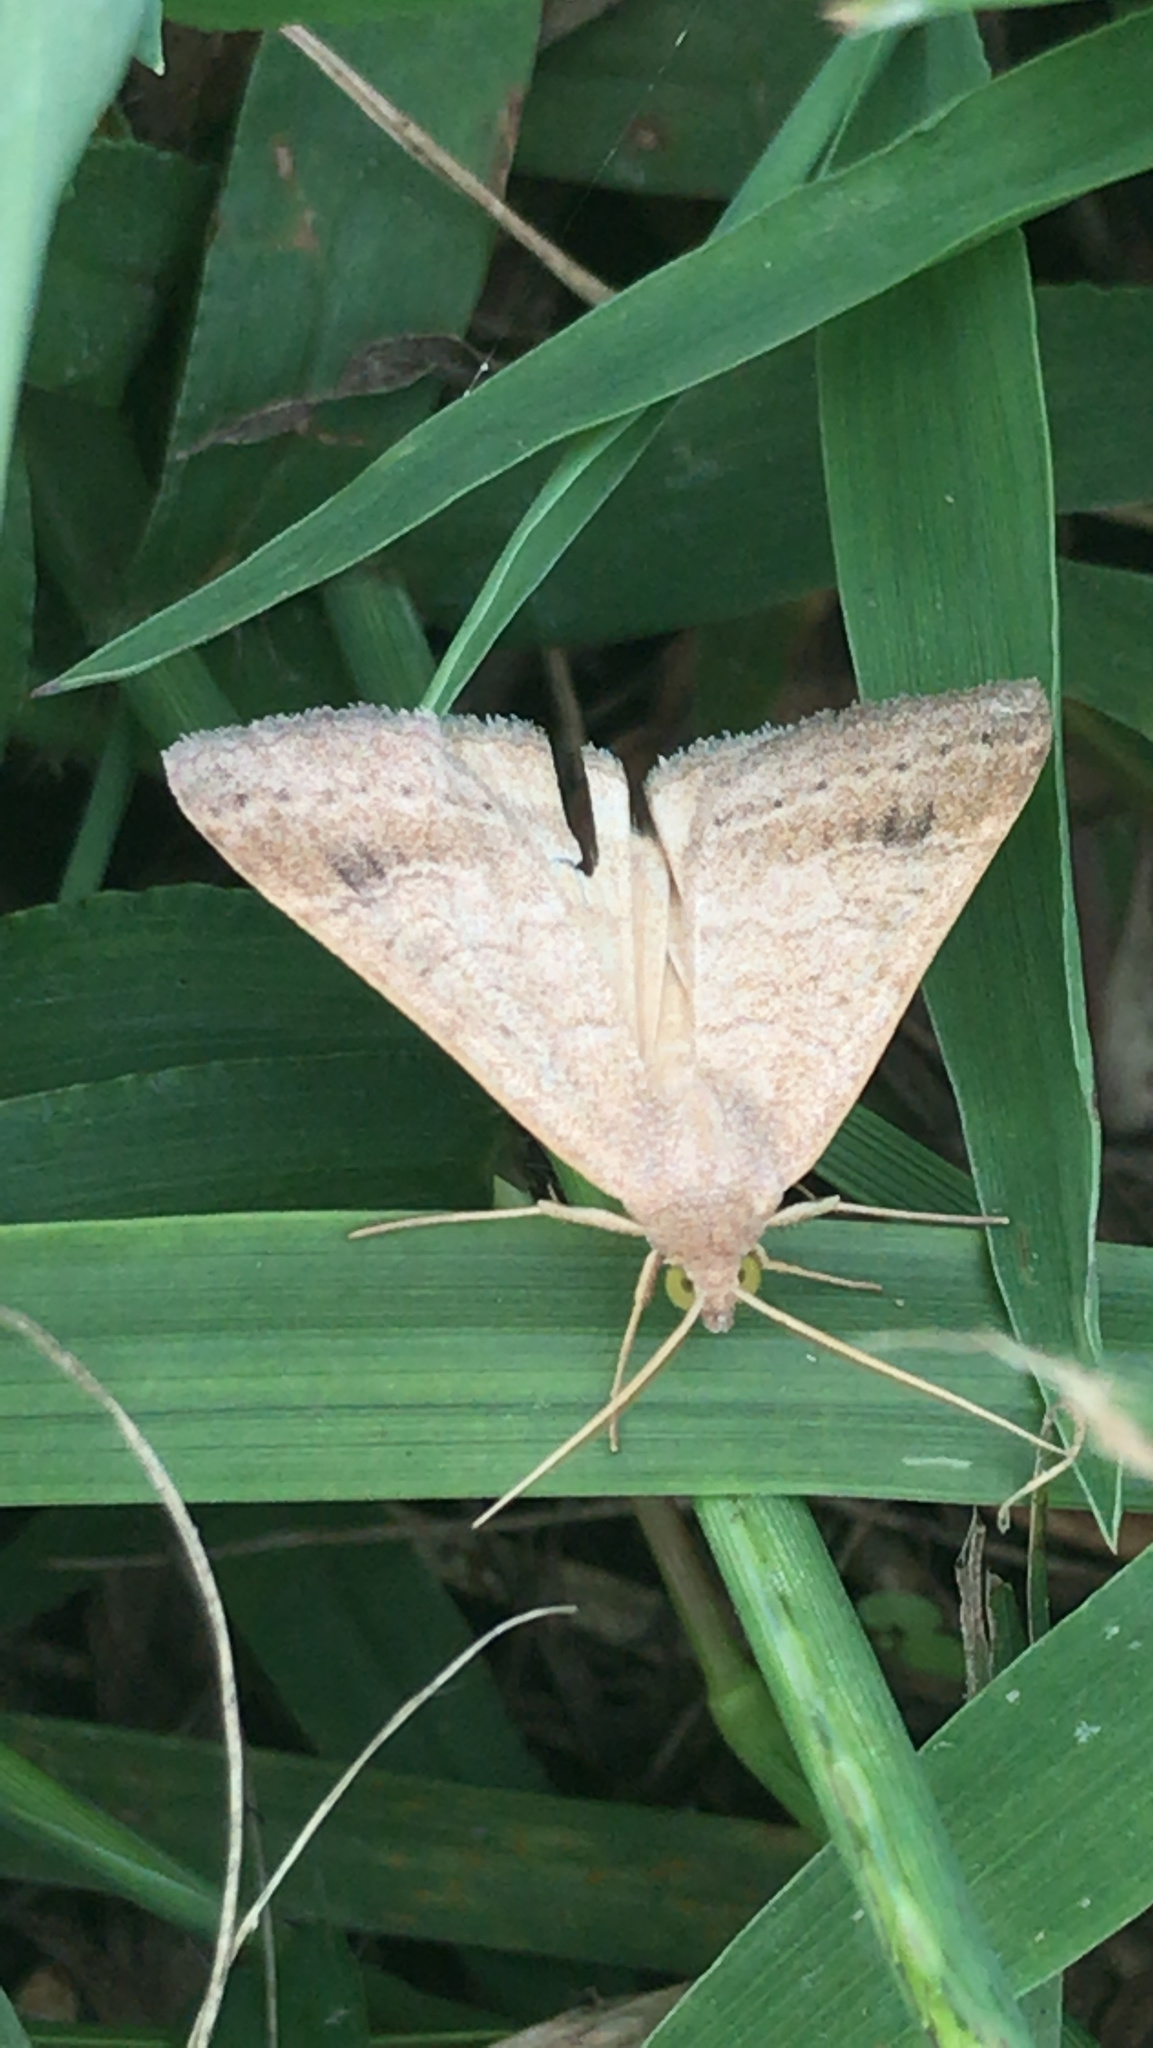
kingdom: Animalia
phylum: Arthropoda
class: Insecta
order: Lepidoptera
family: Erebidae
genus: Caenurgia
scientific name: Caenurgia chloropha
